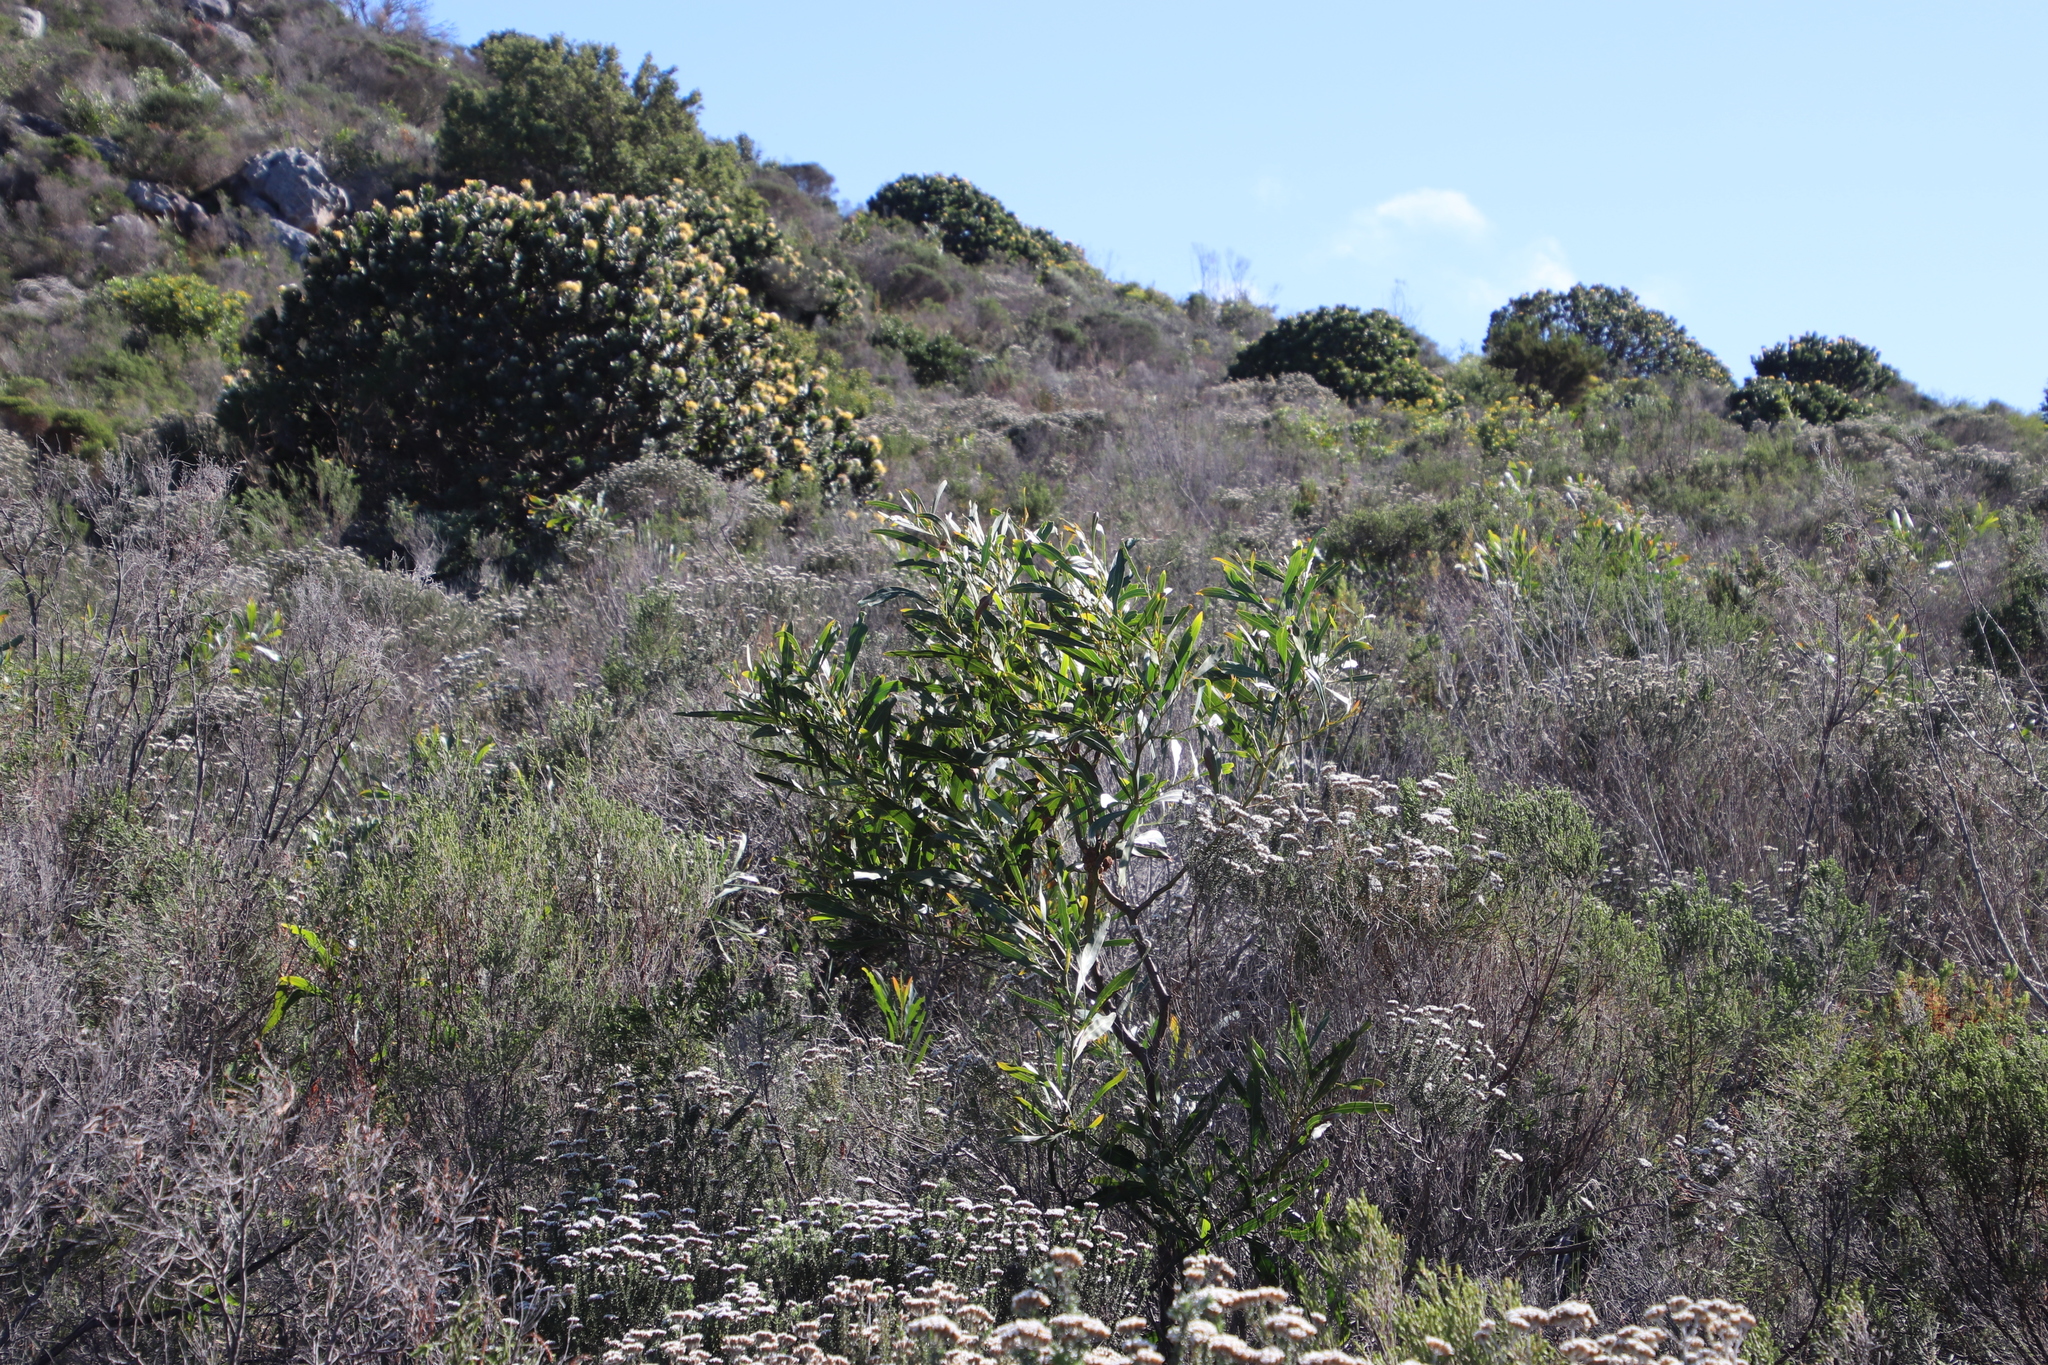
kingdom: Plantae
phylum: Tracheophyta
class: Magnoliopsida
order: Fabales
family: Fabaceae
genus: Acacia
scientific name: Acacia saligna
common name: Orange wattle
